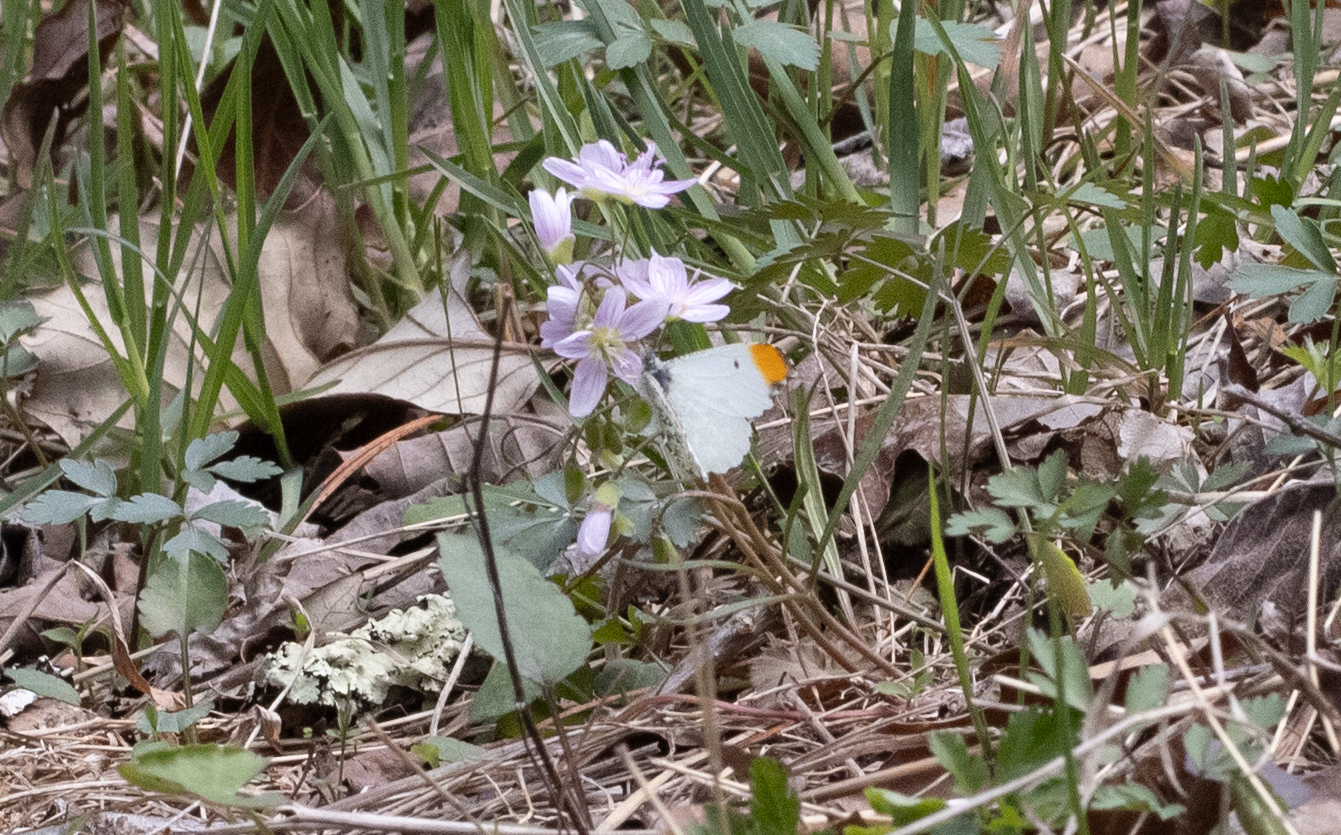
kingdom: Animalia
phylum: Arthropoda
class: Insecta
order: Lepidoptera
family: Pieridae
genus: Anthocharis
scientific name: Anthocharis midea
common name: Falcate orangetip
